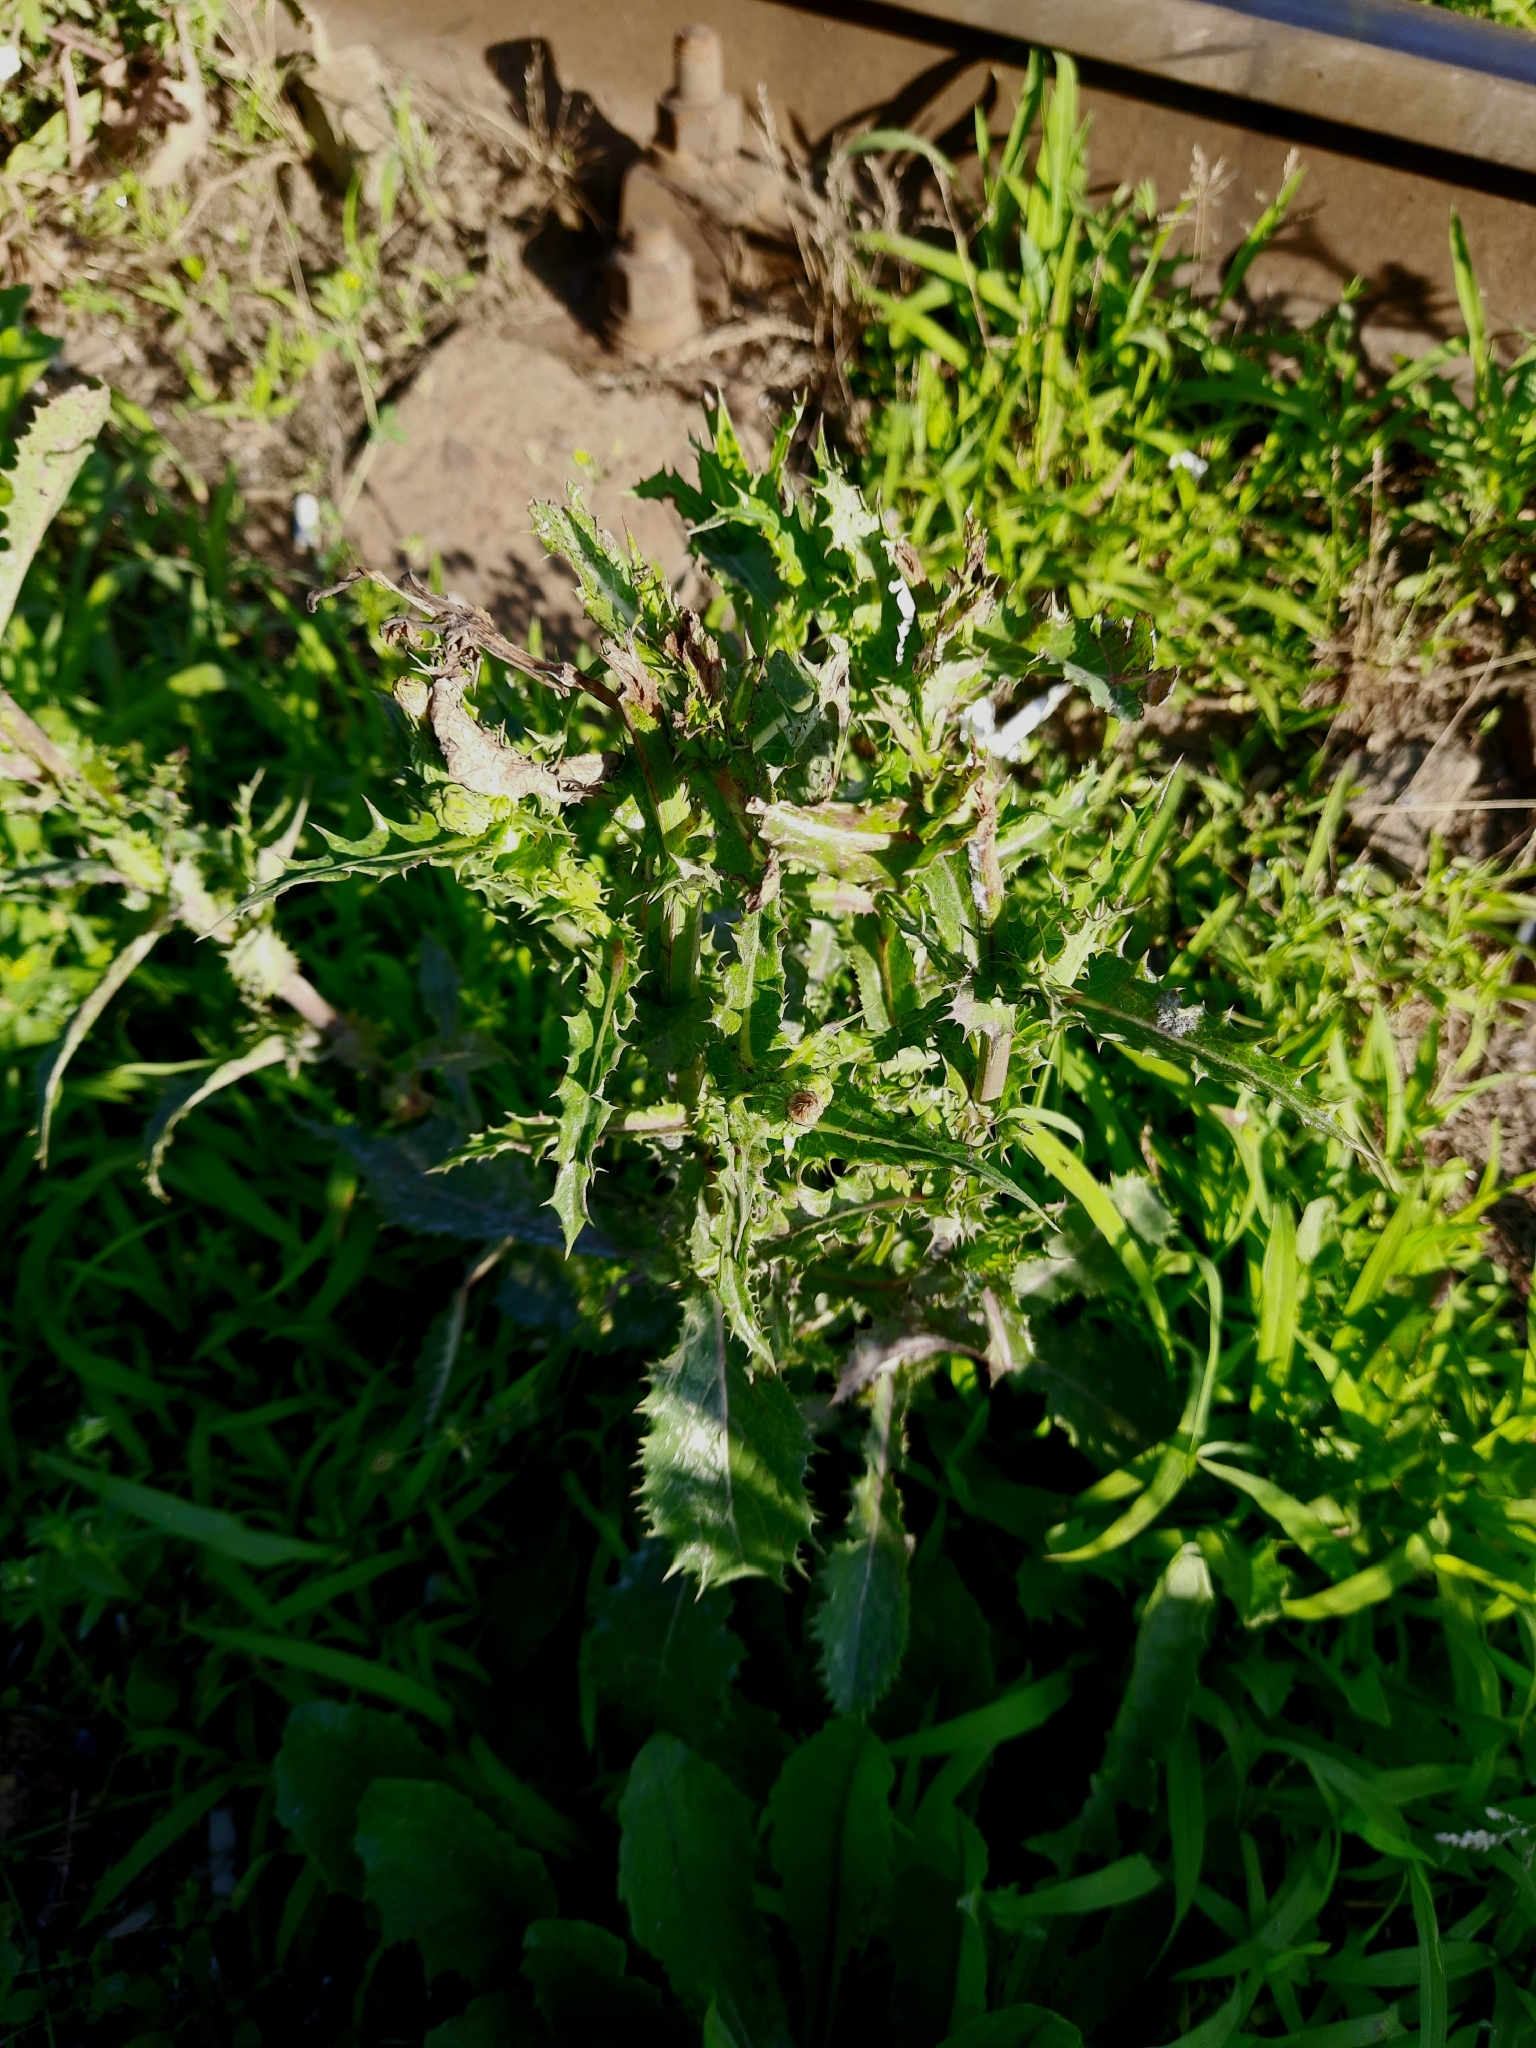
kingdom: Plantae
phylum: Tracheophyta
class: Magnoliopsida
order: Asterales
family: Asteraceae
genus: Sonchus
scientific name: Sonchus asper
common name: Prickly sow-thistle
